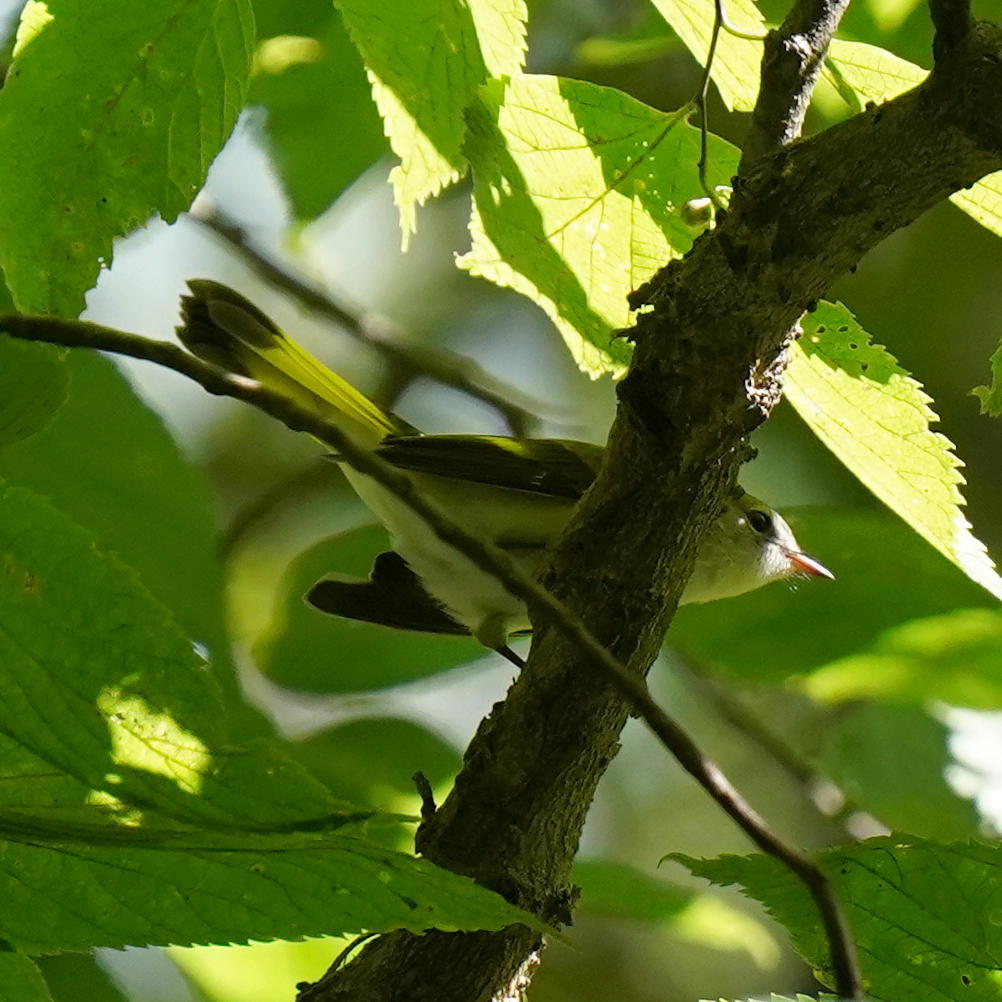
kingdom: Animalia
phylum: Chordata
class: Aves
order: Passeriformes
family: Parulidae
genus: Setophaga
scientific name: Setophaga ruticilla
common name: American redstart
